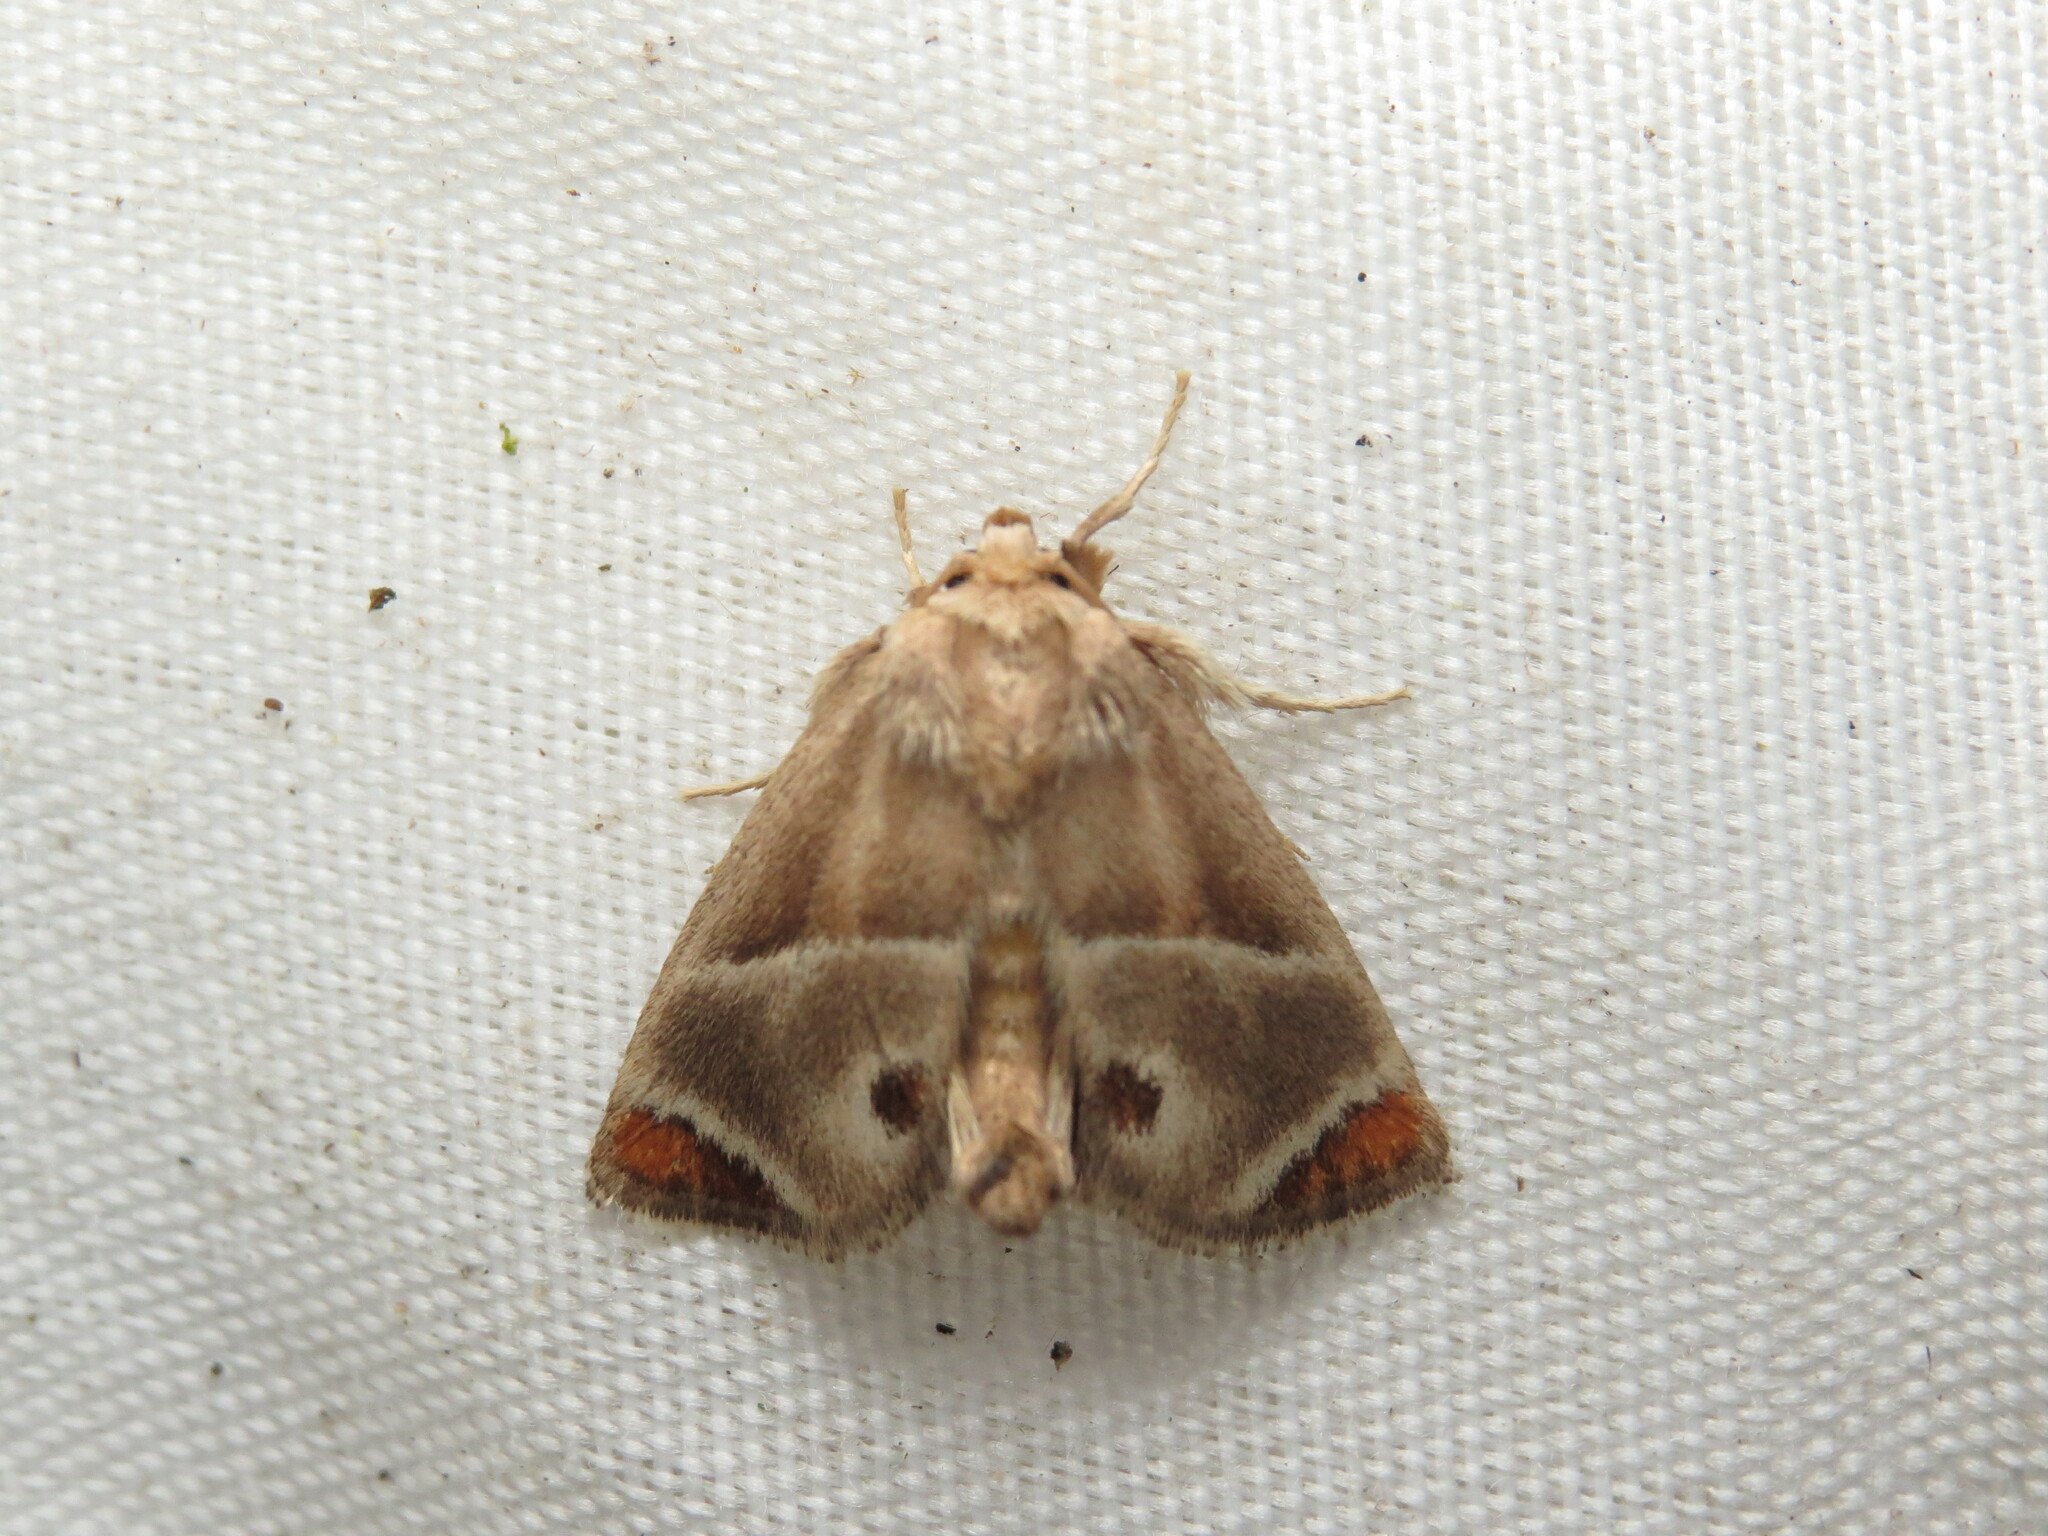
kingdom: Animalia
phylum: Arthropoda
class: Insecta
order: Lepidoptera
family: Limacodidae
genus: Apoda
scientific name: Apoda biguttata
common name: Shagreened slug moth
